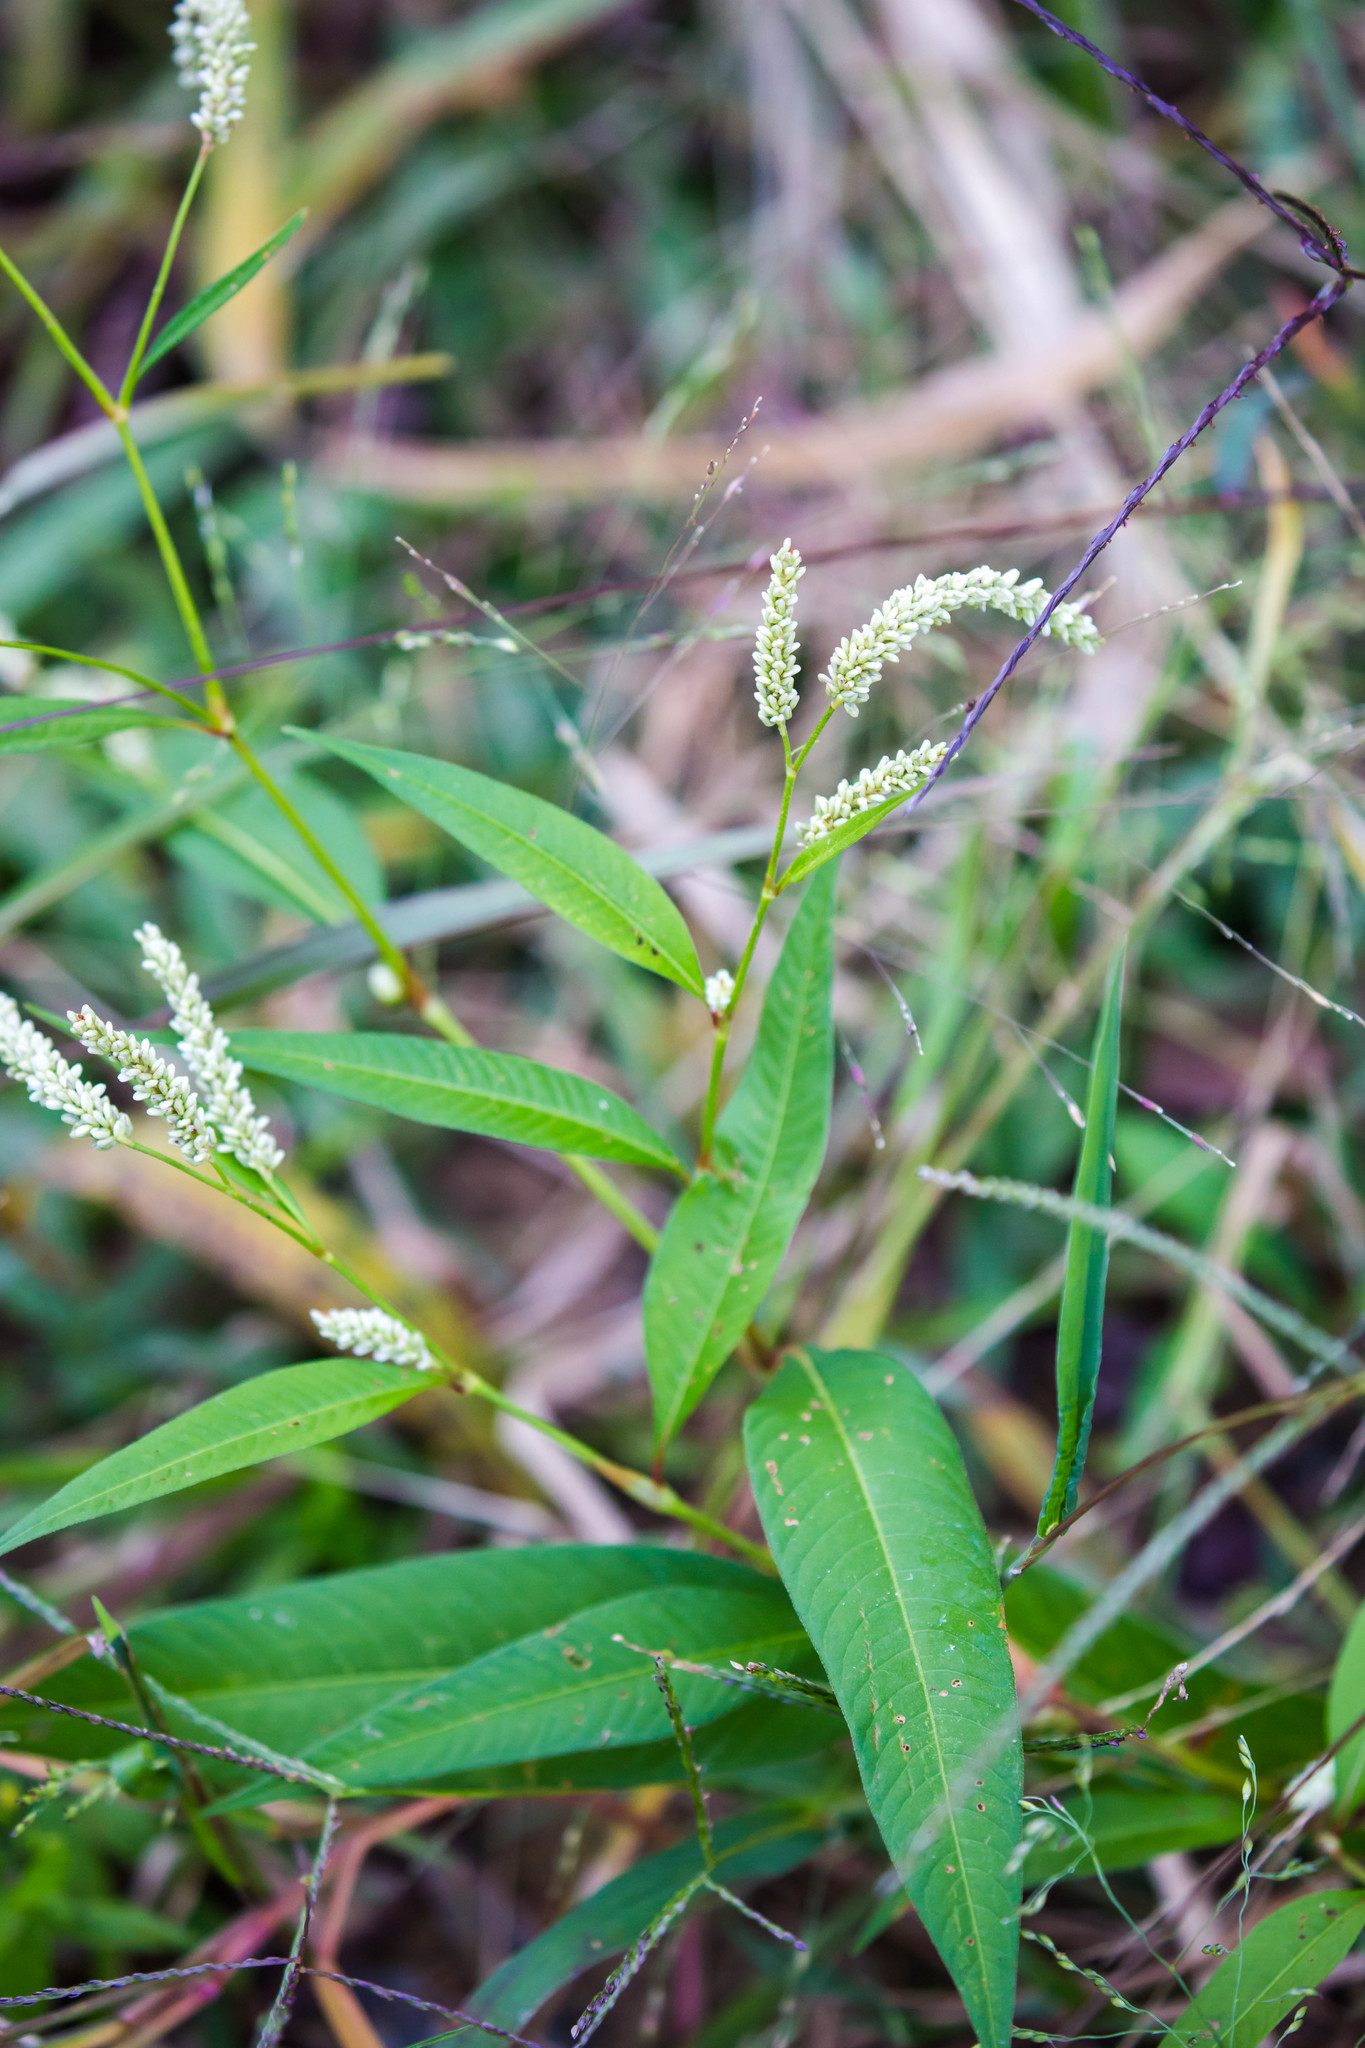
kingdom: Plantae
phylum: Tracheophyta
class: Magnoliopsida
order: Caryophyllales
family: Polygonaceae
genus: Persicaria
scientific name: Persicaria lapathifolia
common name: Curlytop knotweed
